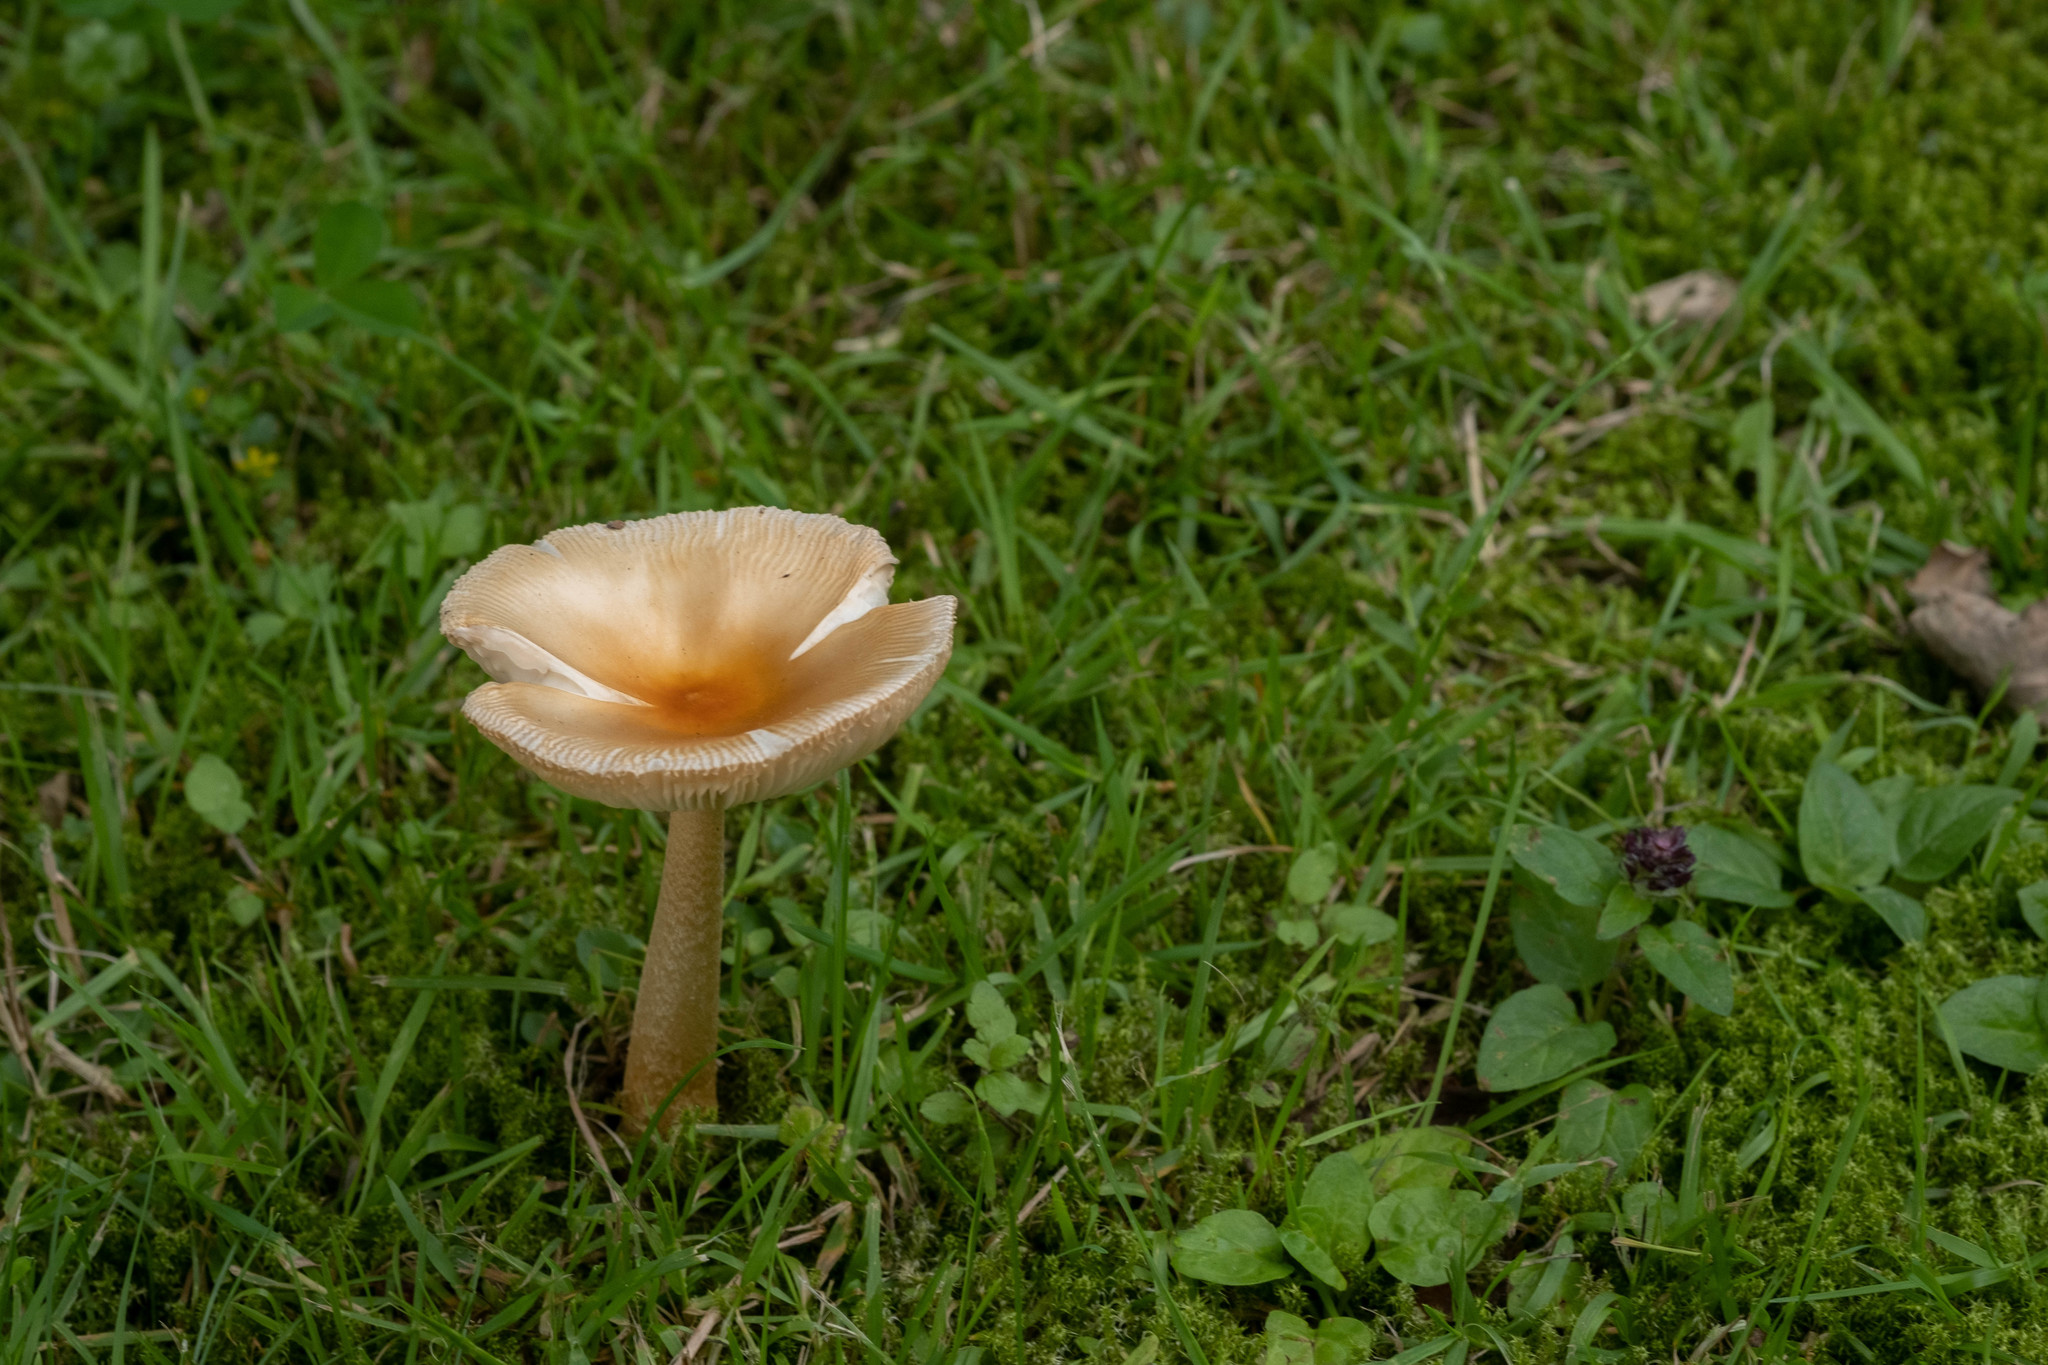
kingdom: Fungi
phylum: Basidiomycota
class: Agaricomycetes
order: Agaricales
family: Amanitaceae
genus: Amanita
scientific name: Amanita crocea
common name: Orange grisette
